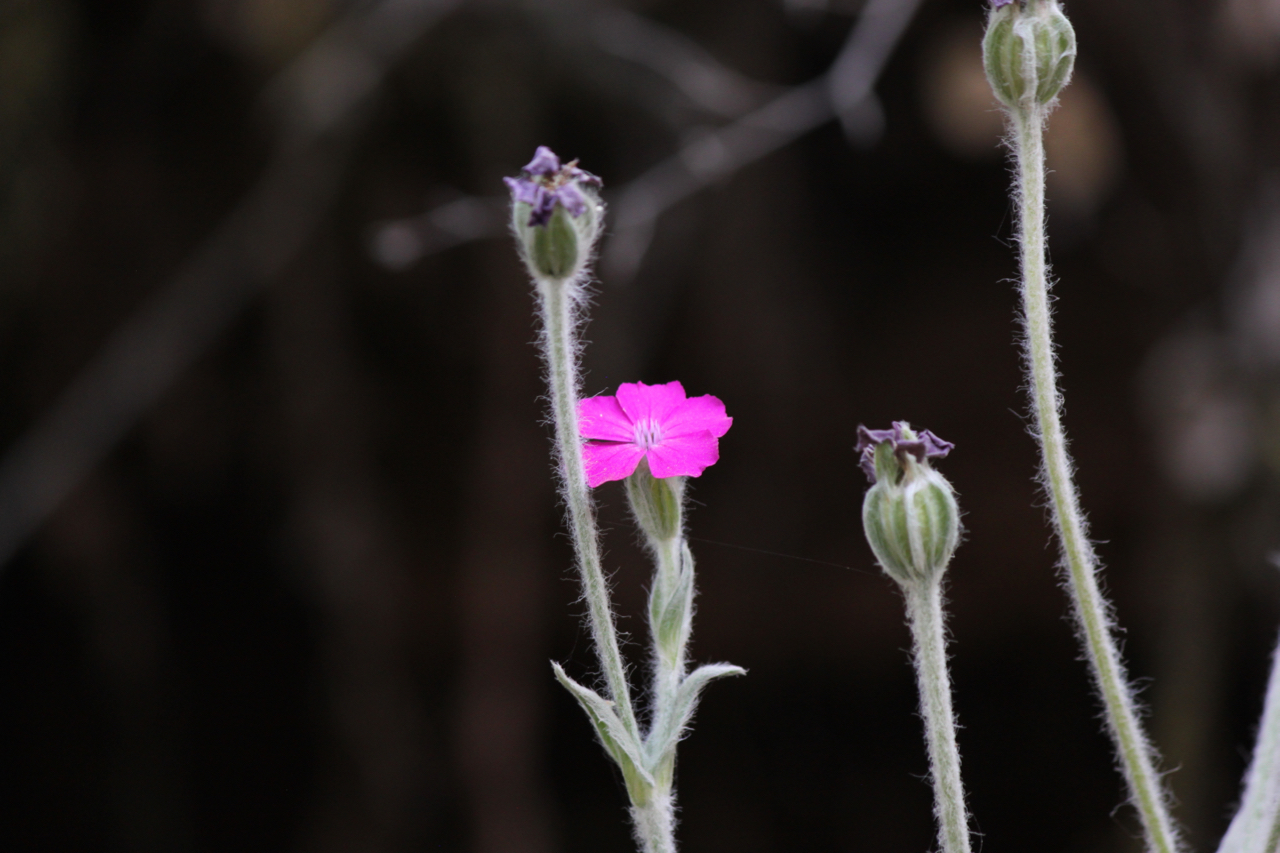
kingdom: Plantae
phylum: Tracheophyta
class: Magnoliopsida
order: Caryophyllales
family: Caryophyllaceae
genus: Silene
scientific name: Silene coronaria
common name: Rose campion
